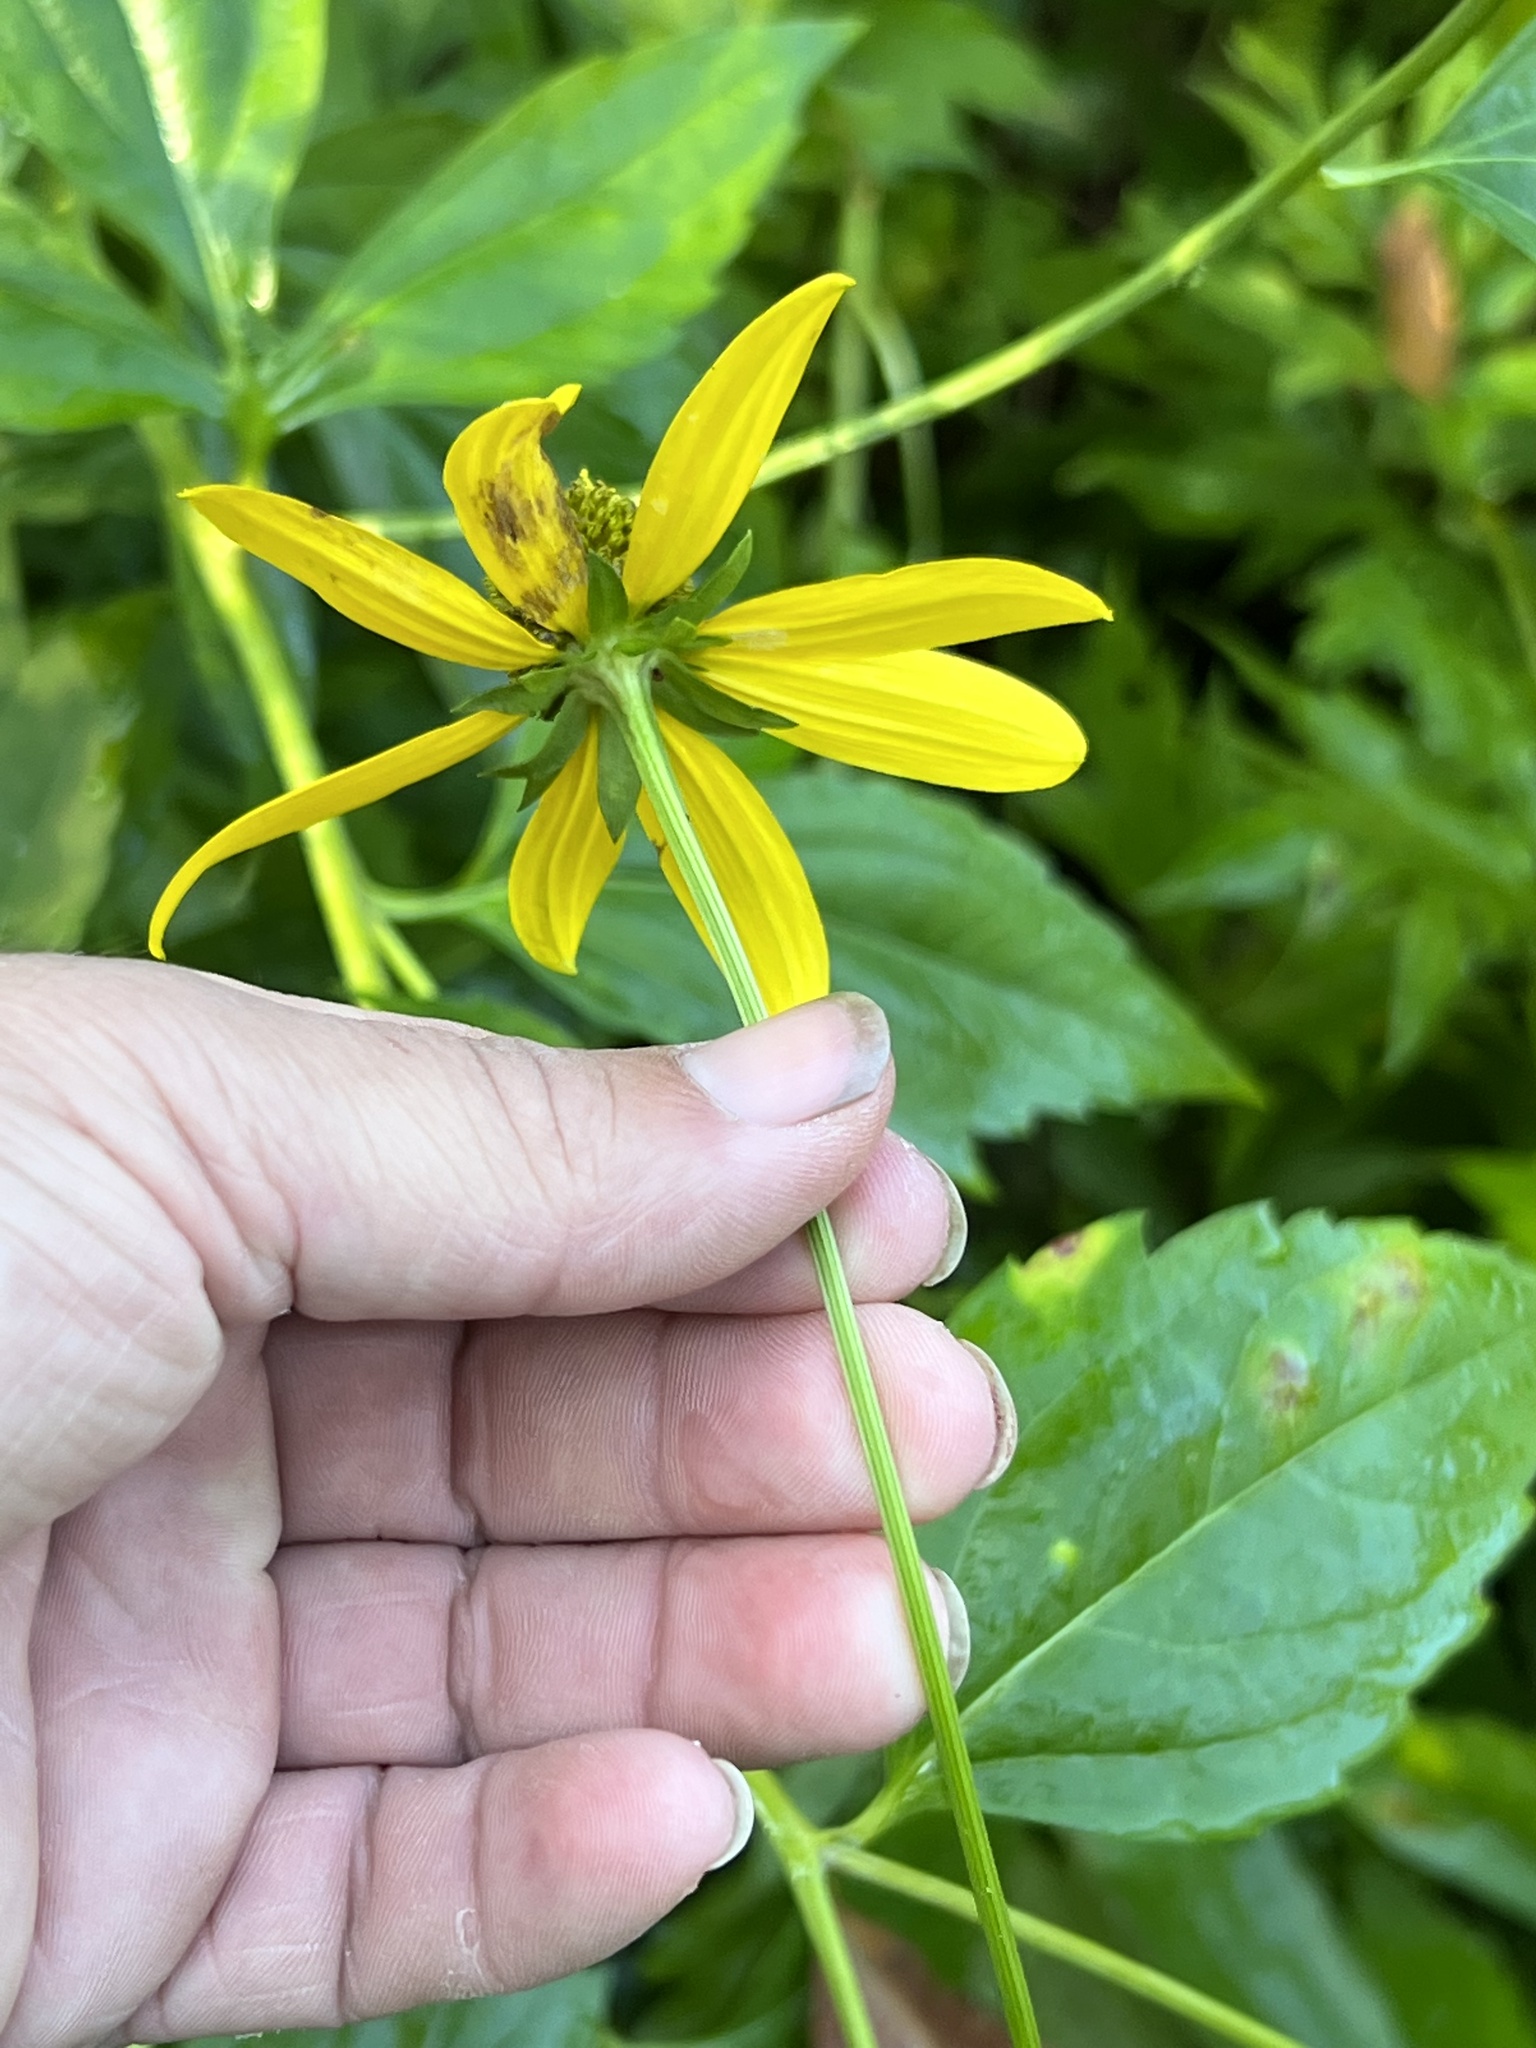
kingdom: Animalia
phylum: Arthropoda
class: Insecta
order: Diptera
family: Cecidomyiidae
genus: Asphondylia
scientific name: Asphondylia rudbeckiaeconspicua
